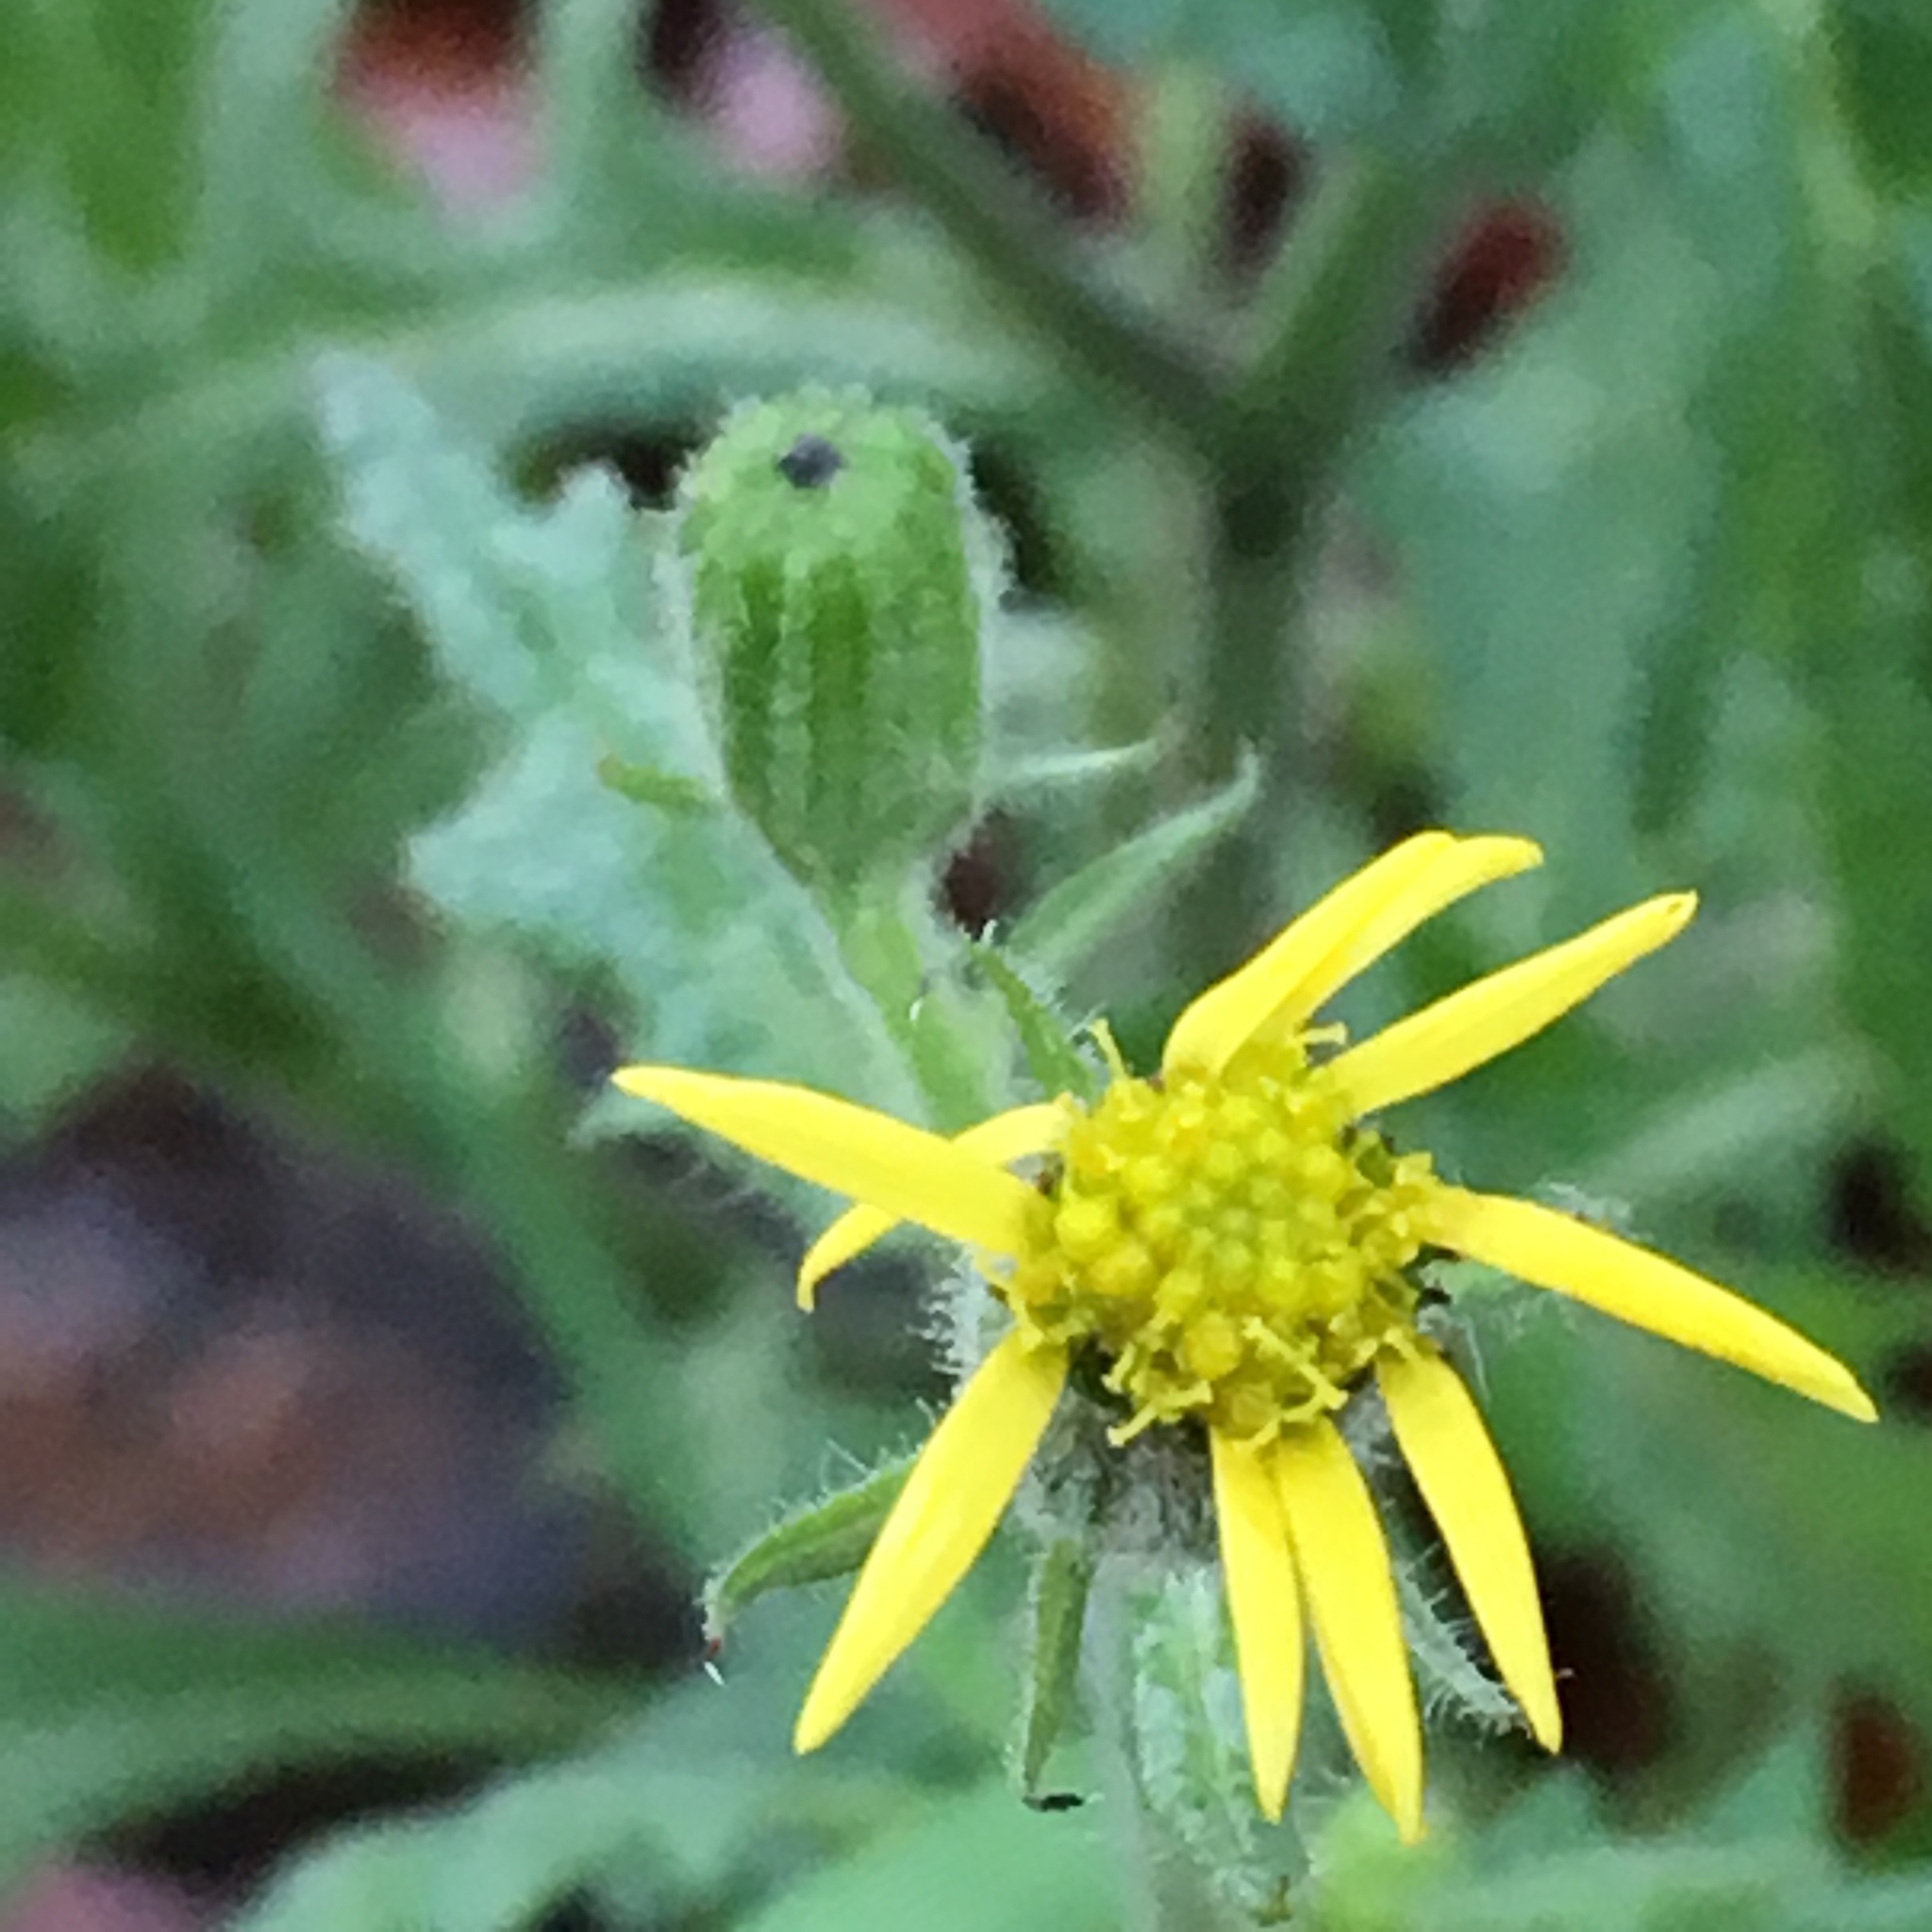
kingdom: Plantae
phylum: Tracheophyta
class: Magnoliopsida
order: Asterales
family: Asteraceae
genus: Senecio
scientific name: Senecio viscosus
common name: Sticky groundsel
